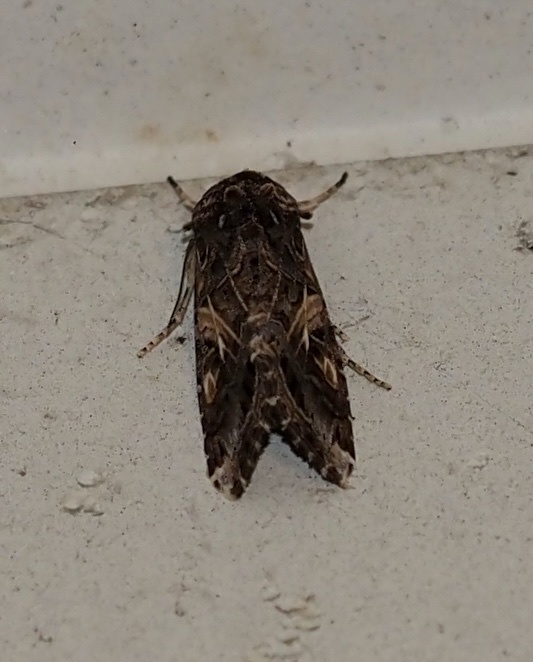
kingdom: Animalia
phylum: Arthropoda
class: Insecta
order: Lepidoptera
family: Noctuidae
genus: Spodoptera
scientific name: Spodoptera ornithogalli
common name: Yellow-striped armyworm
